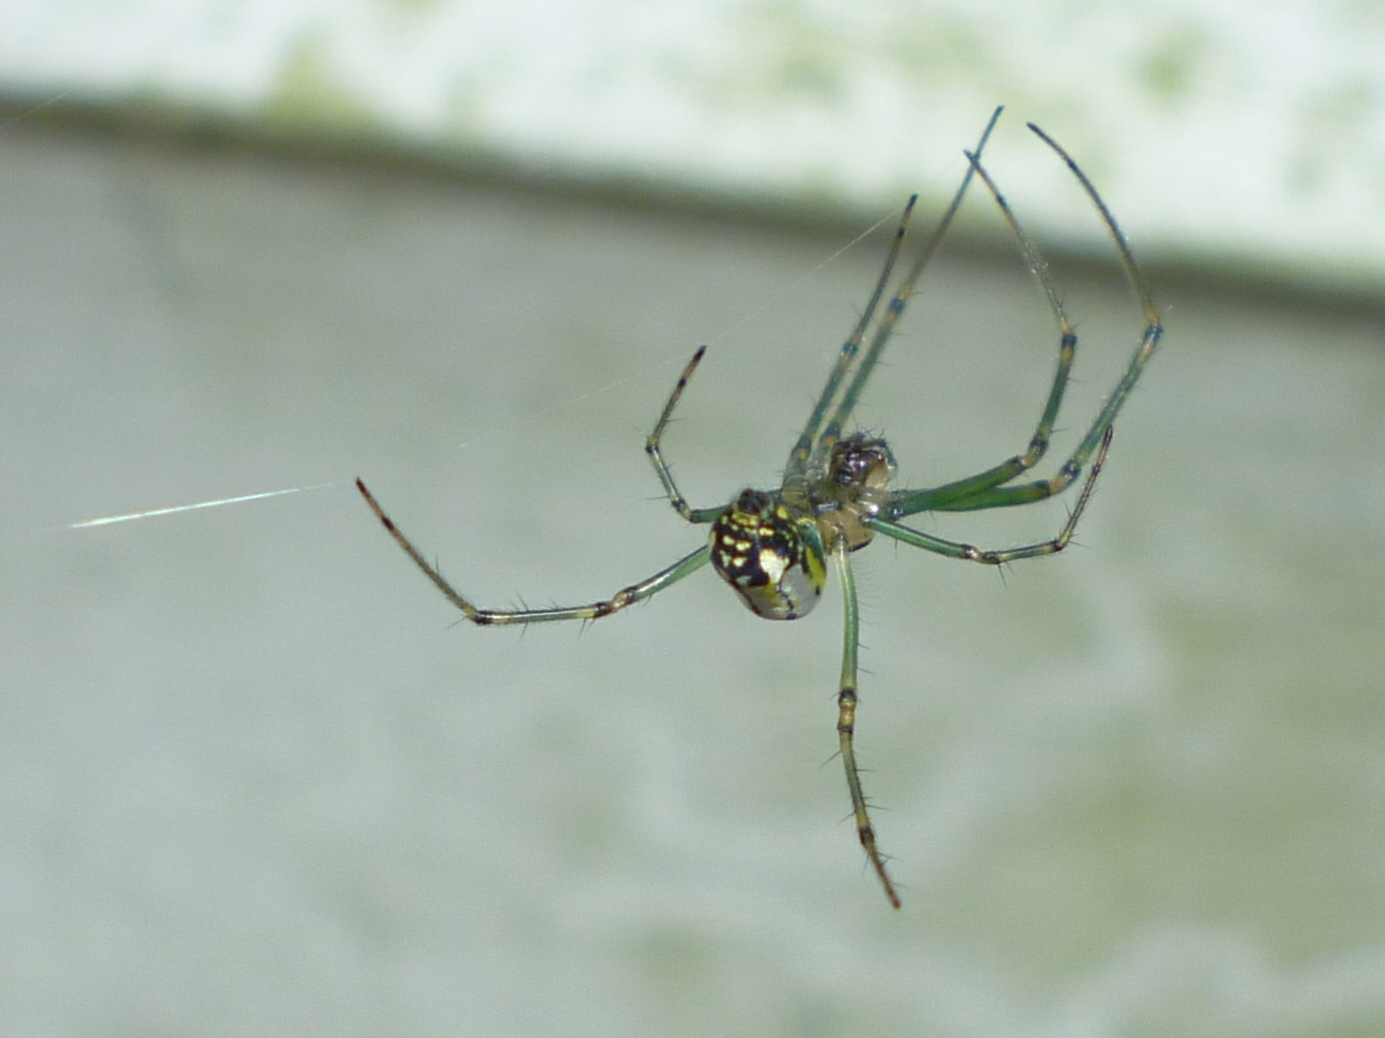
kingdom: Animalia
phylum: Arthropoda
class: Arachnida
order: Araneae
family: Tetragnathidae
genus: Leucauge
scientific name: Leucauge venusta
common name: Longjawed orb weavers
